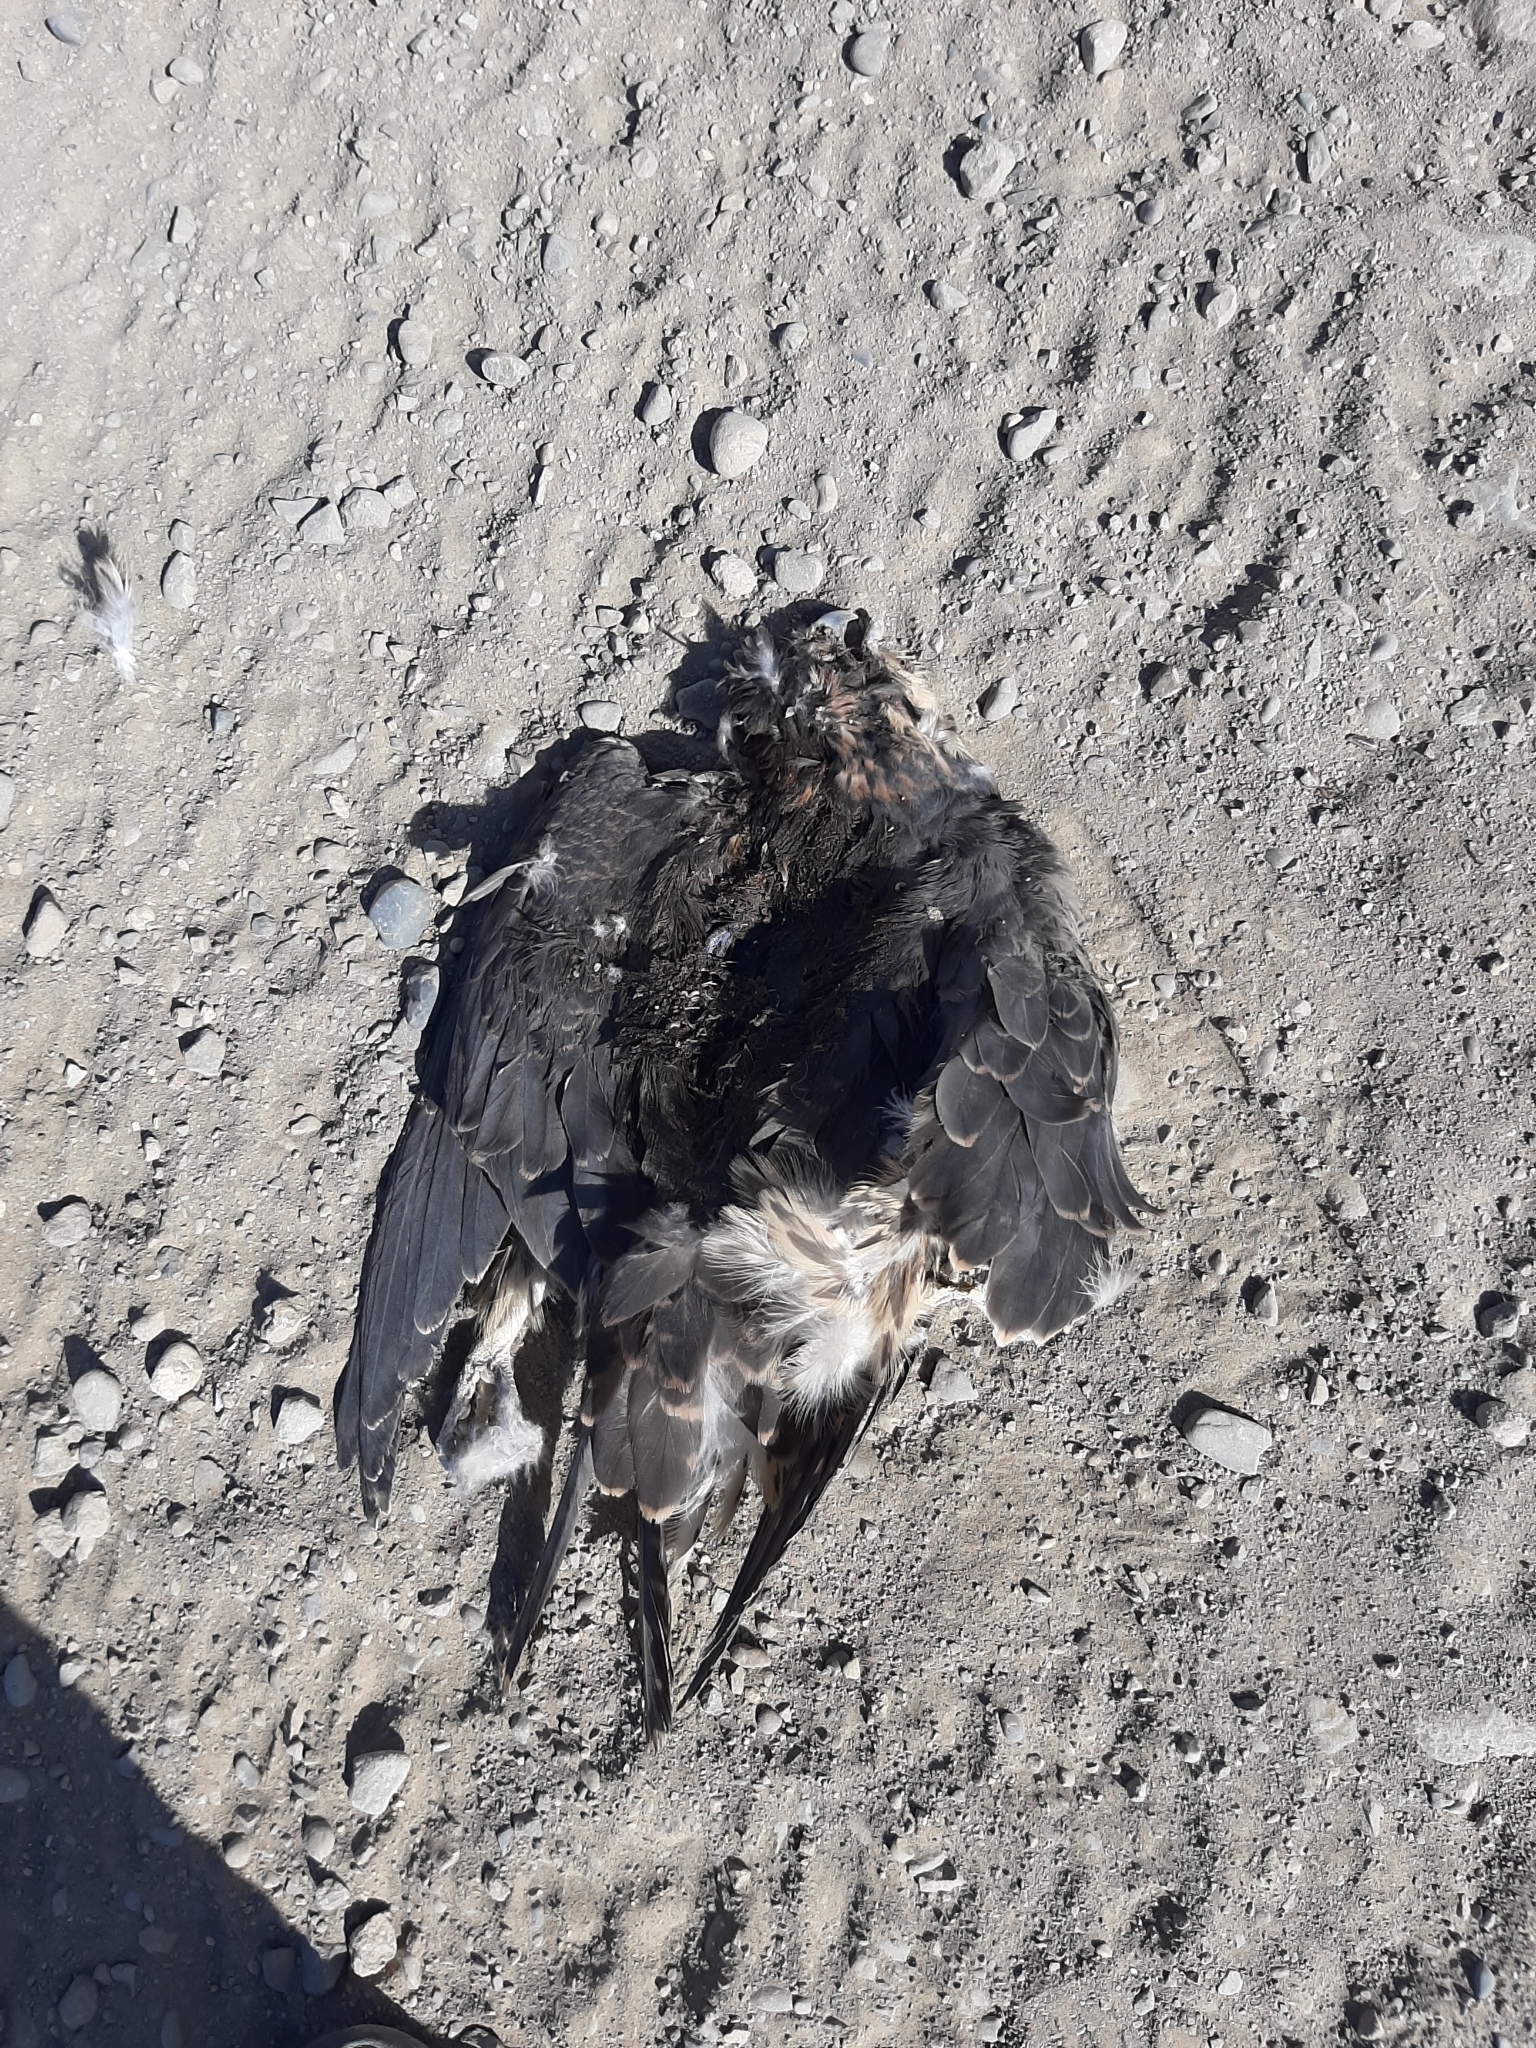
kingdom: Animalia
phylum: Chordata
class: Aves
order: Falconiformes
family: Falconidae
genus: Falco
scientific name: Falco peregrinus
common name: Peregrine falcon
